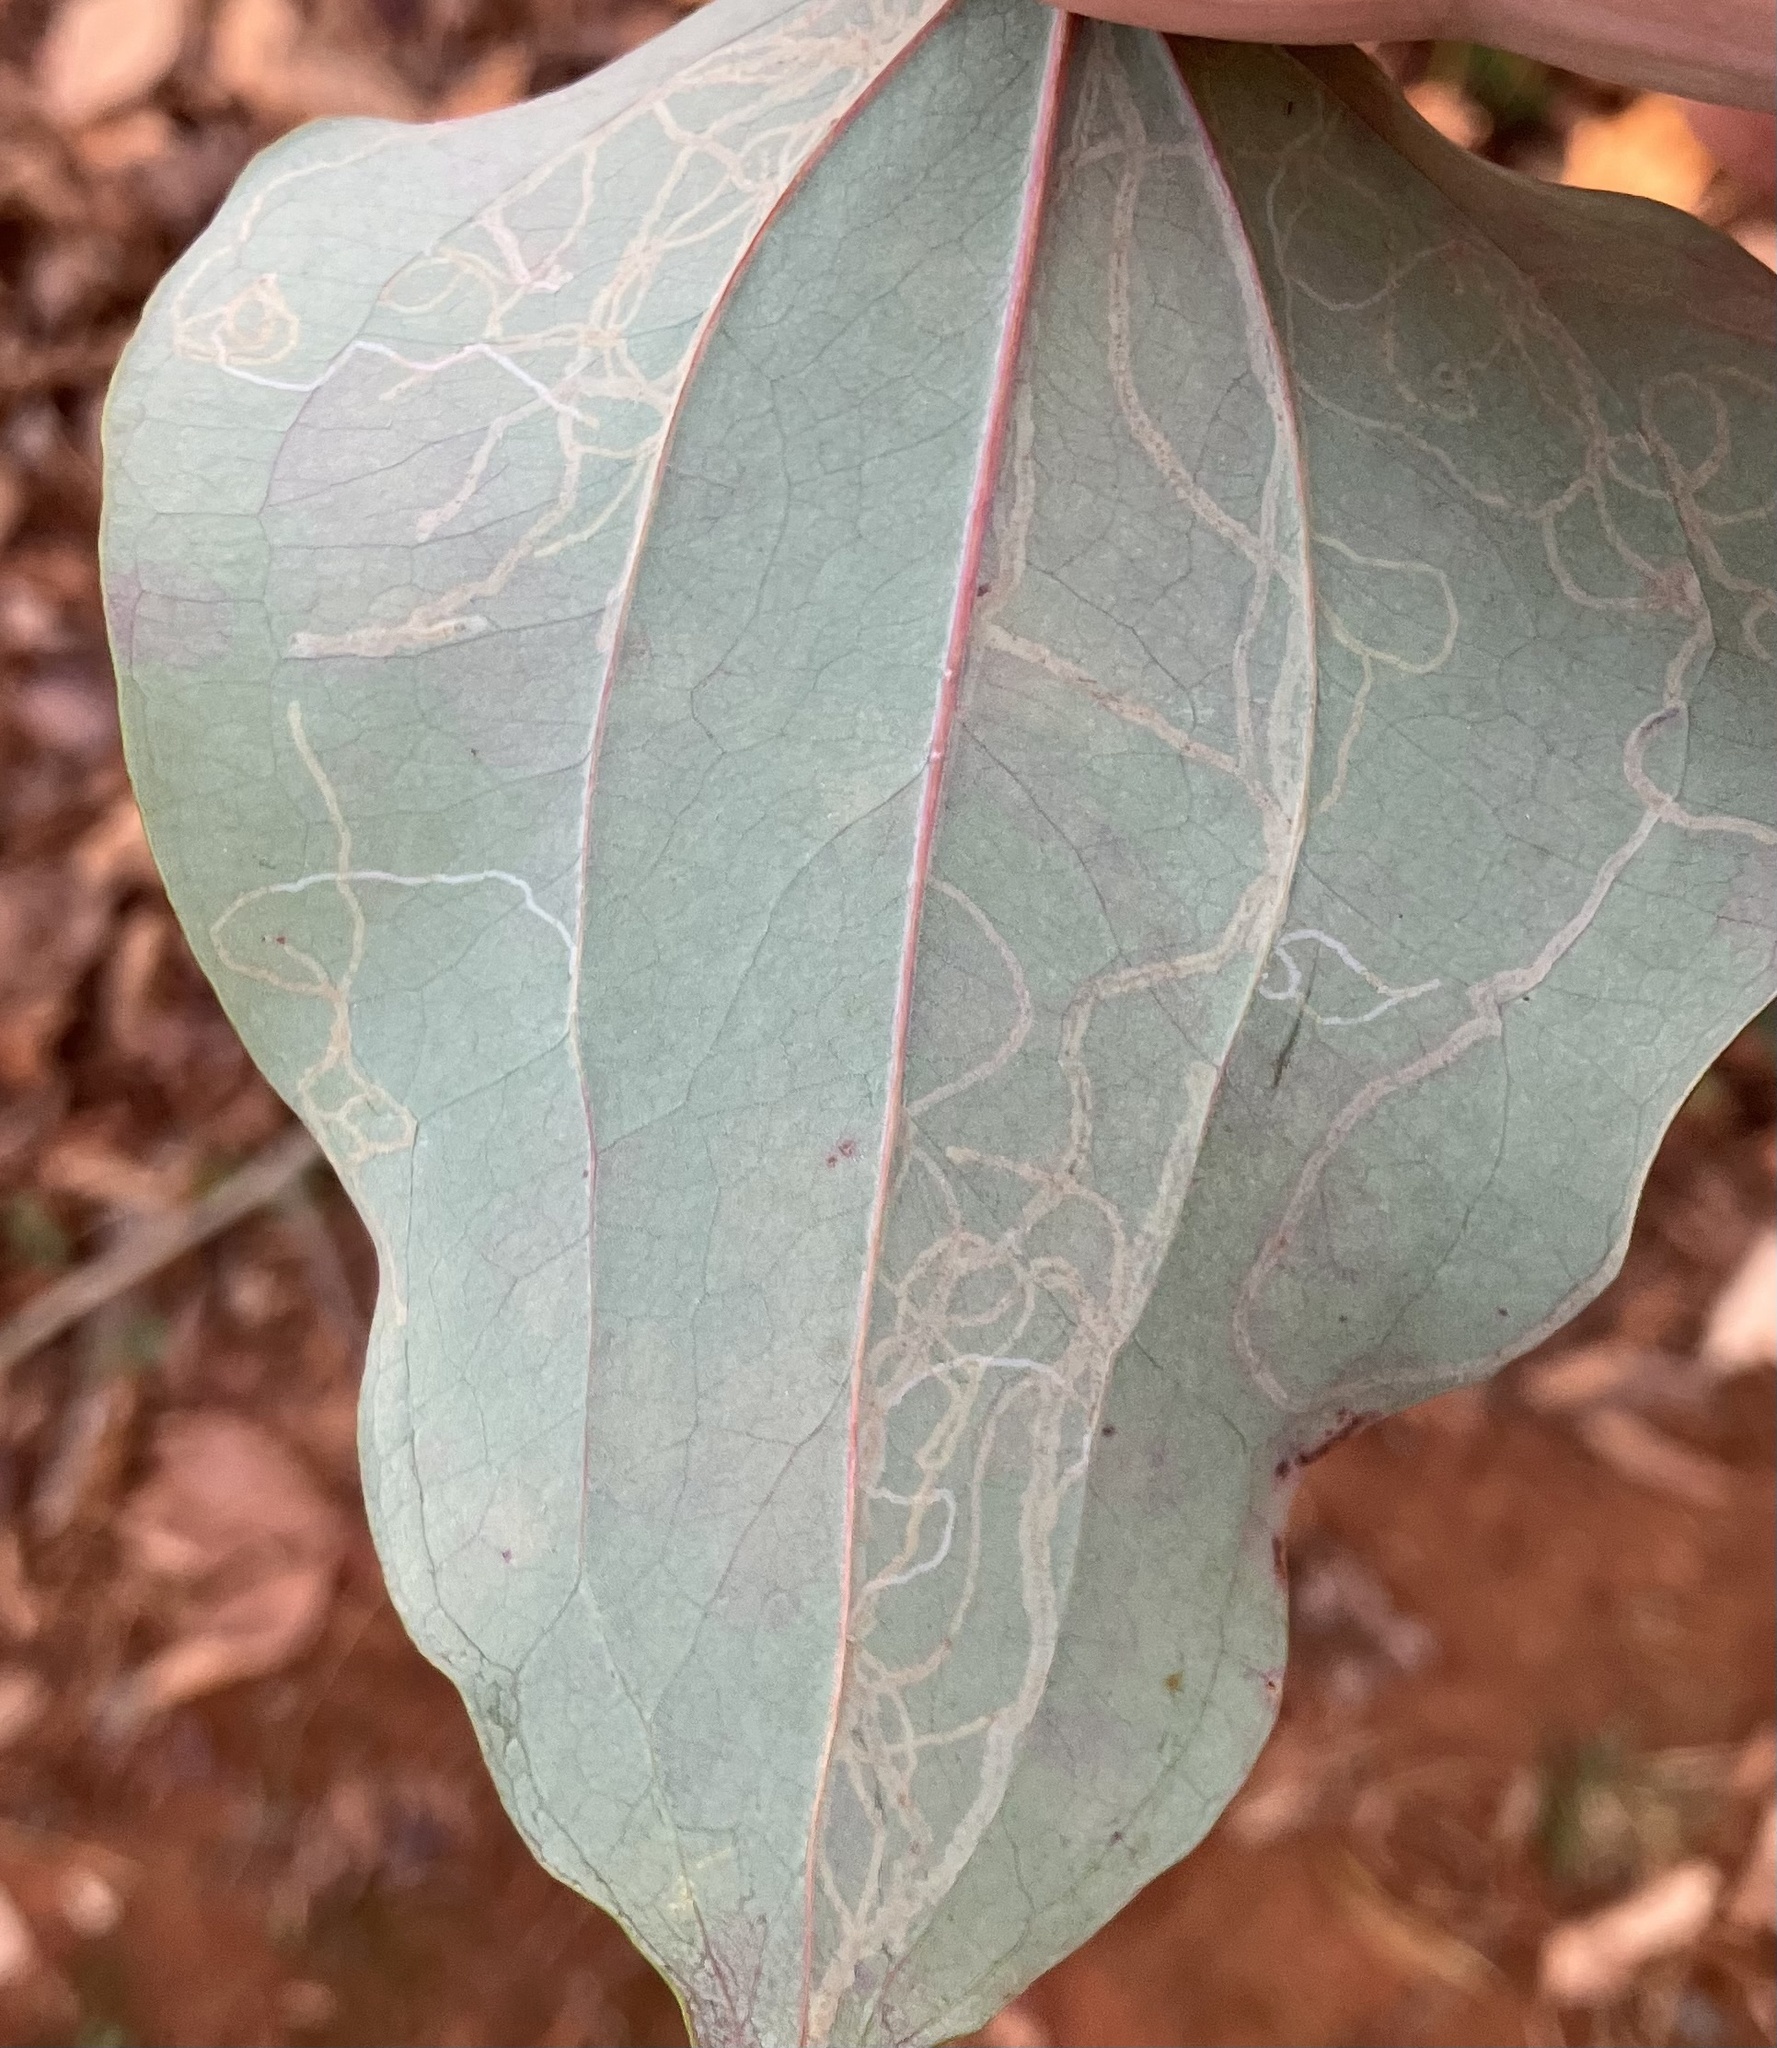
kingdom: Animalia
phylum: Arthropoda
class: Insecta
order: Lepidoptera
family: Gracillariidae
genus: Marmara
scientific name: Marmara smilacisella
